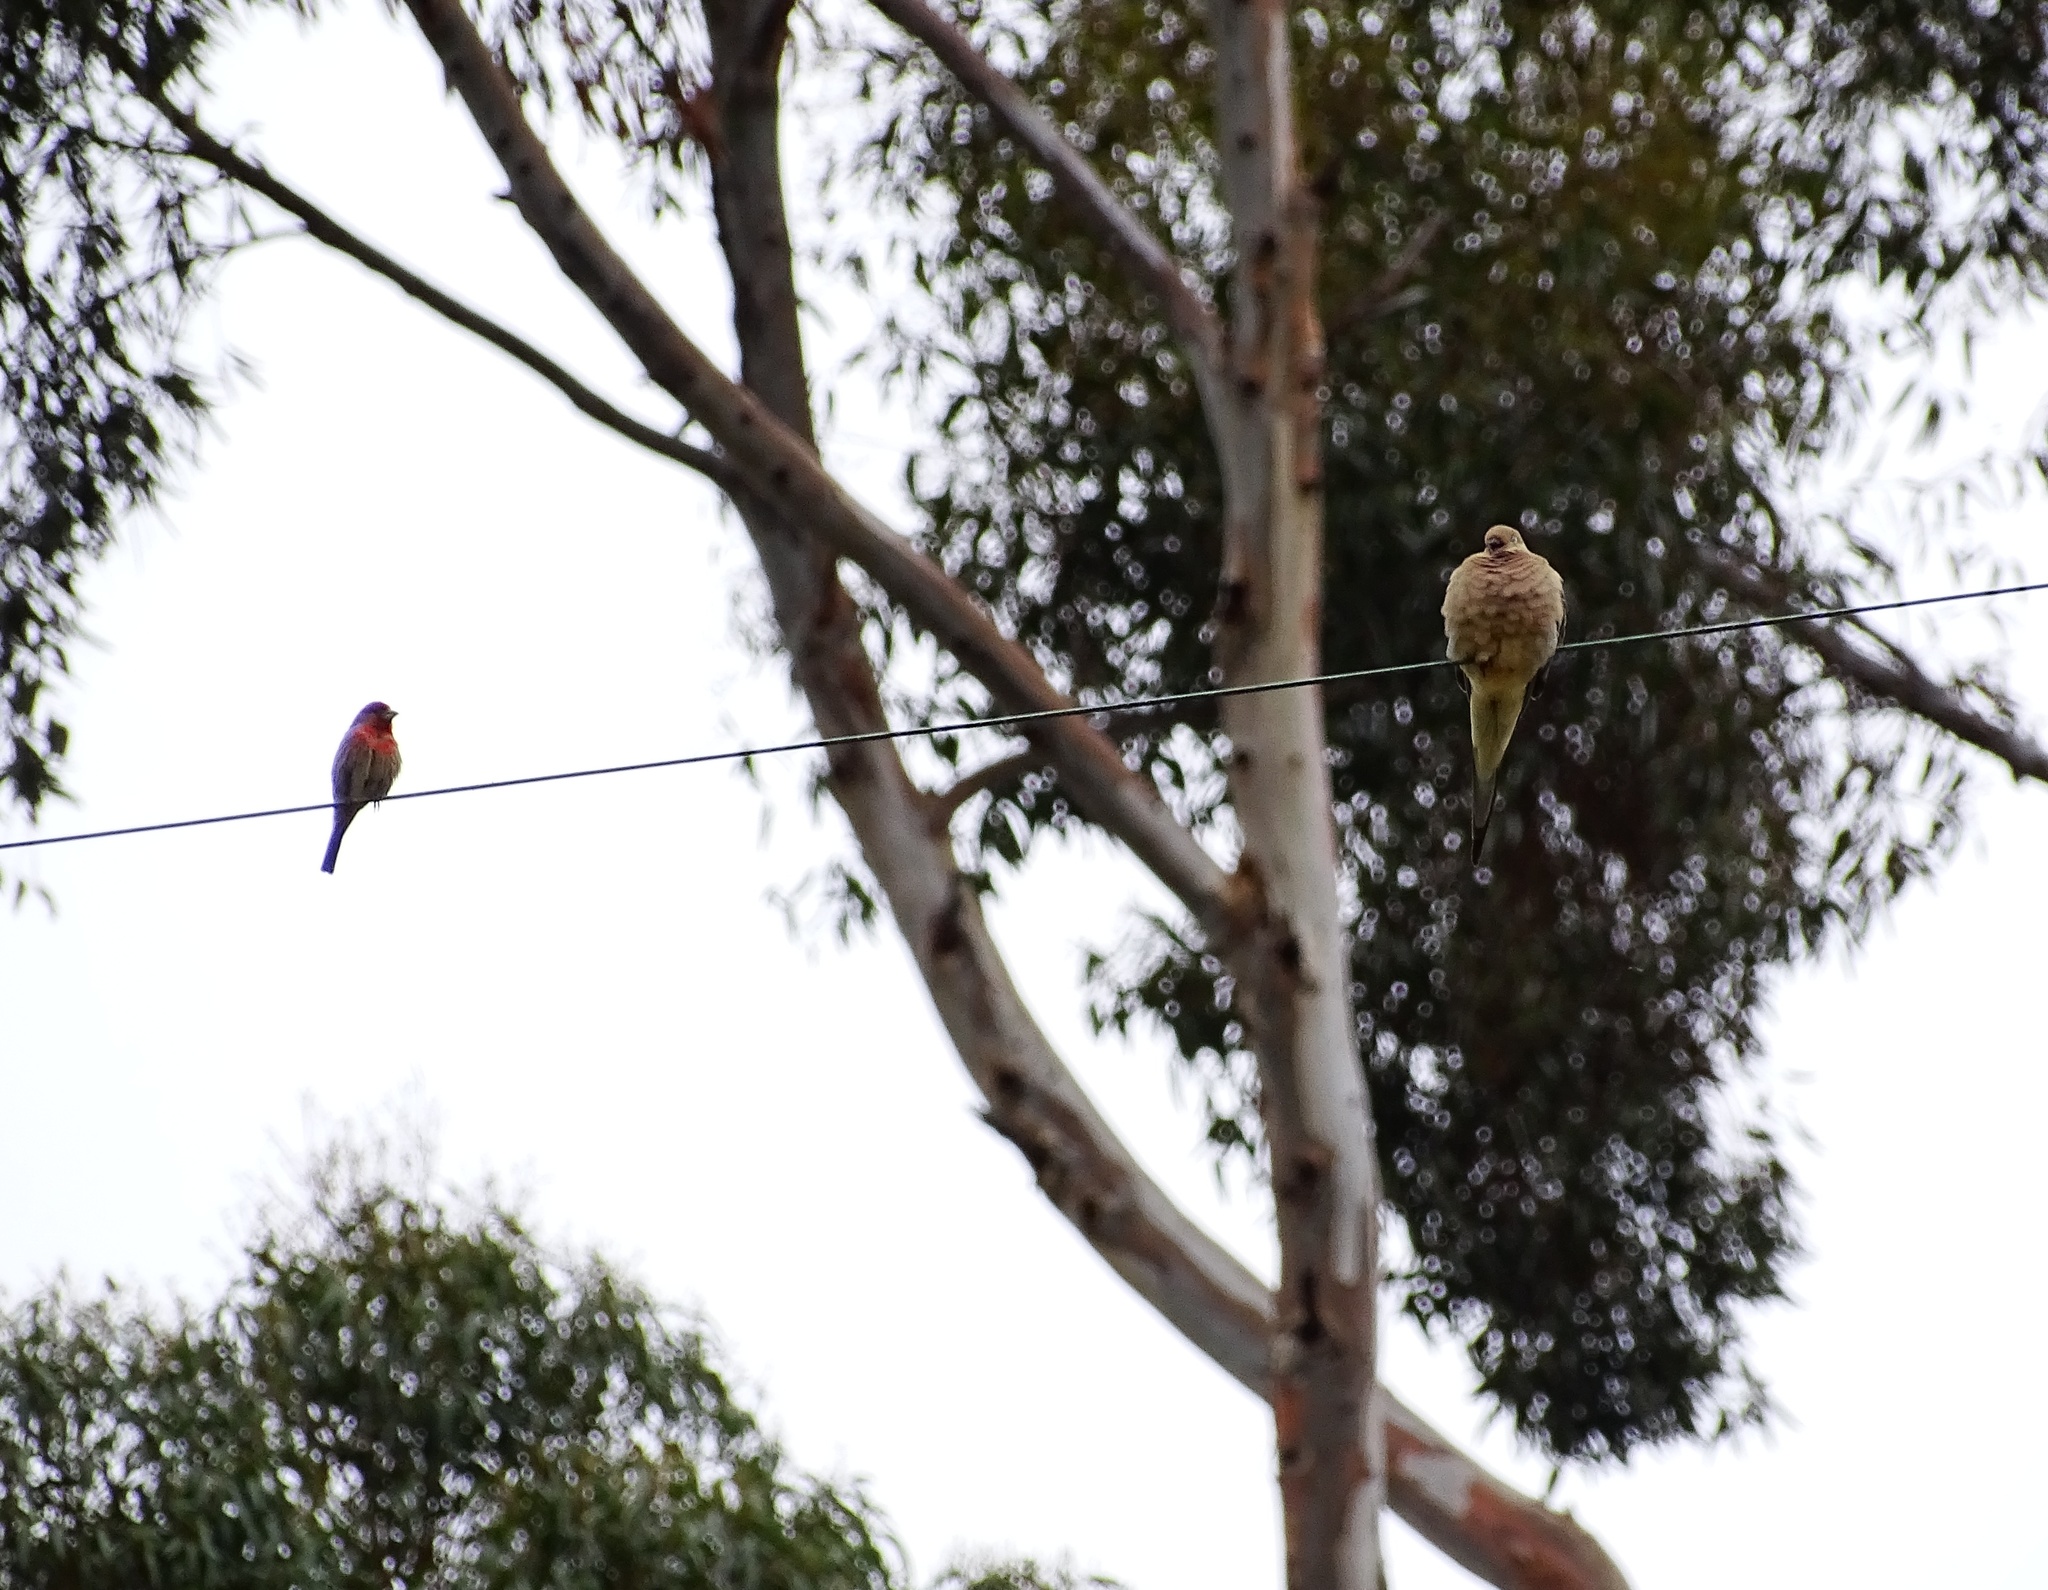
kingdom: Animalia
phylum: Chordata
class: Aves
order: Columbiformes
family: Columbidae
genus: Zenaida
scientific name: Zenaida macroura
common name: Mourning dove
